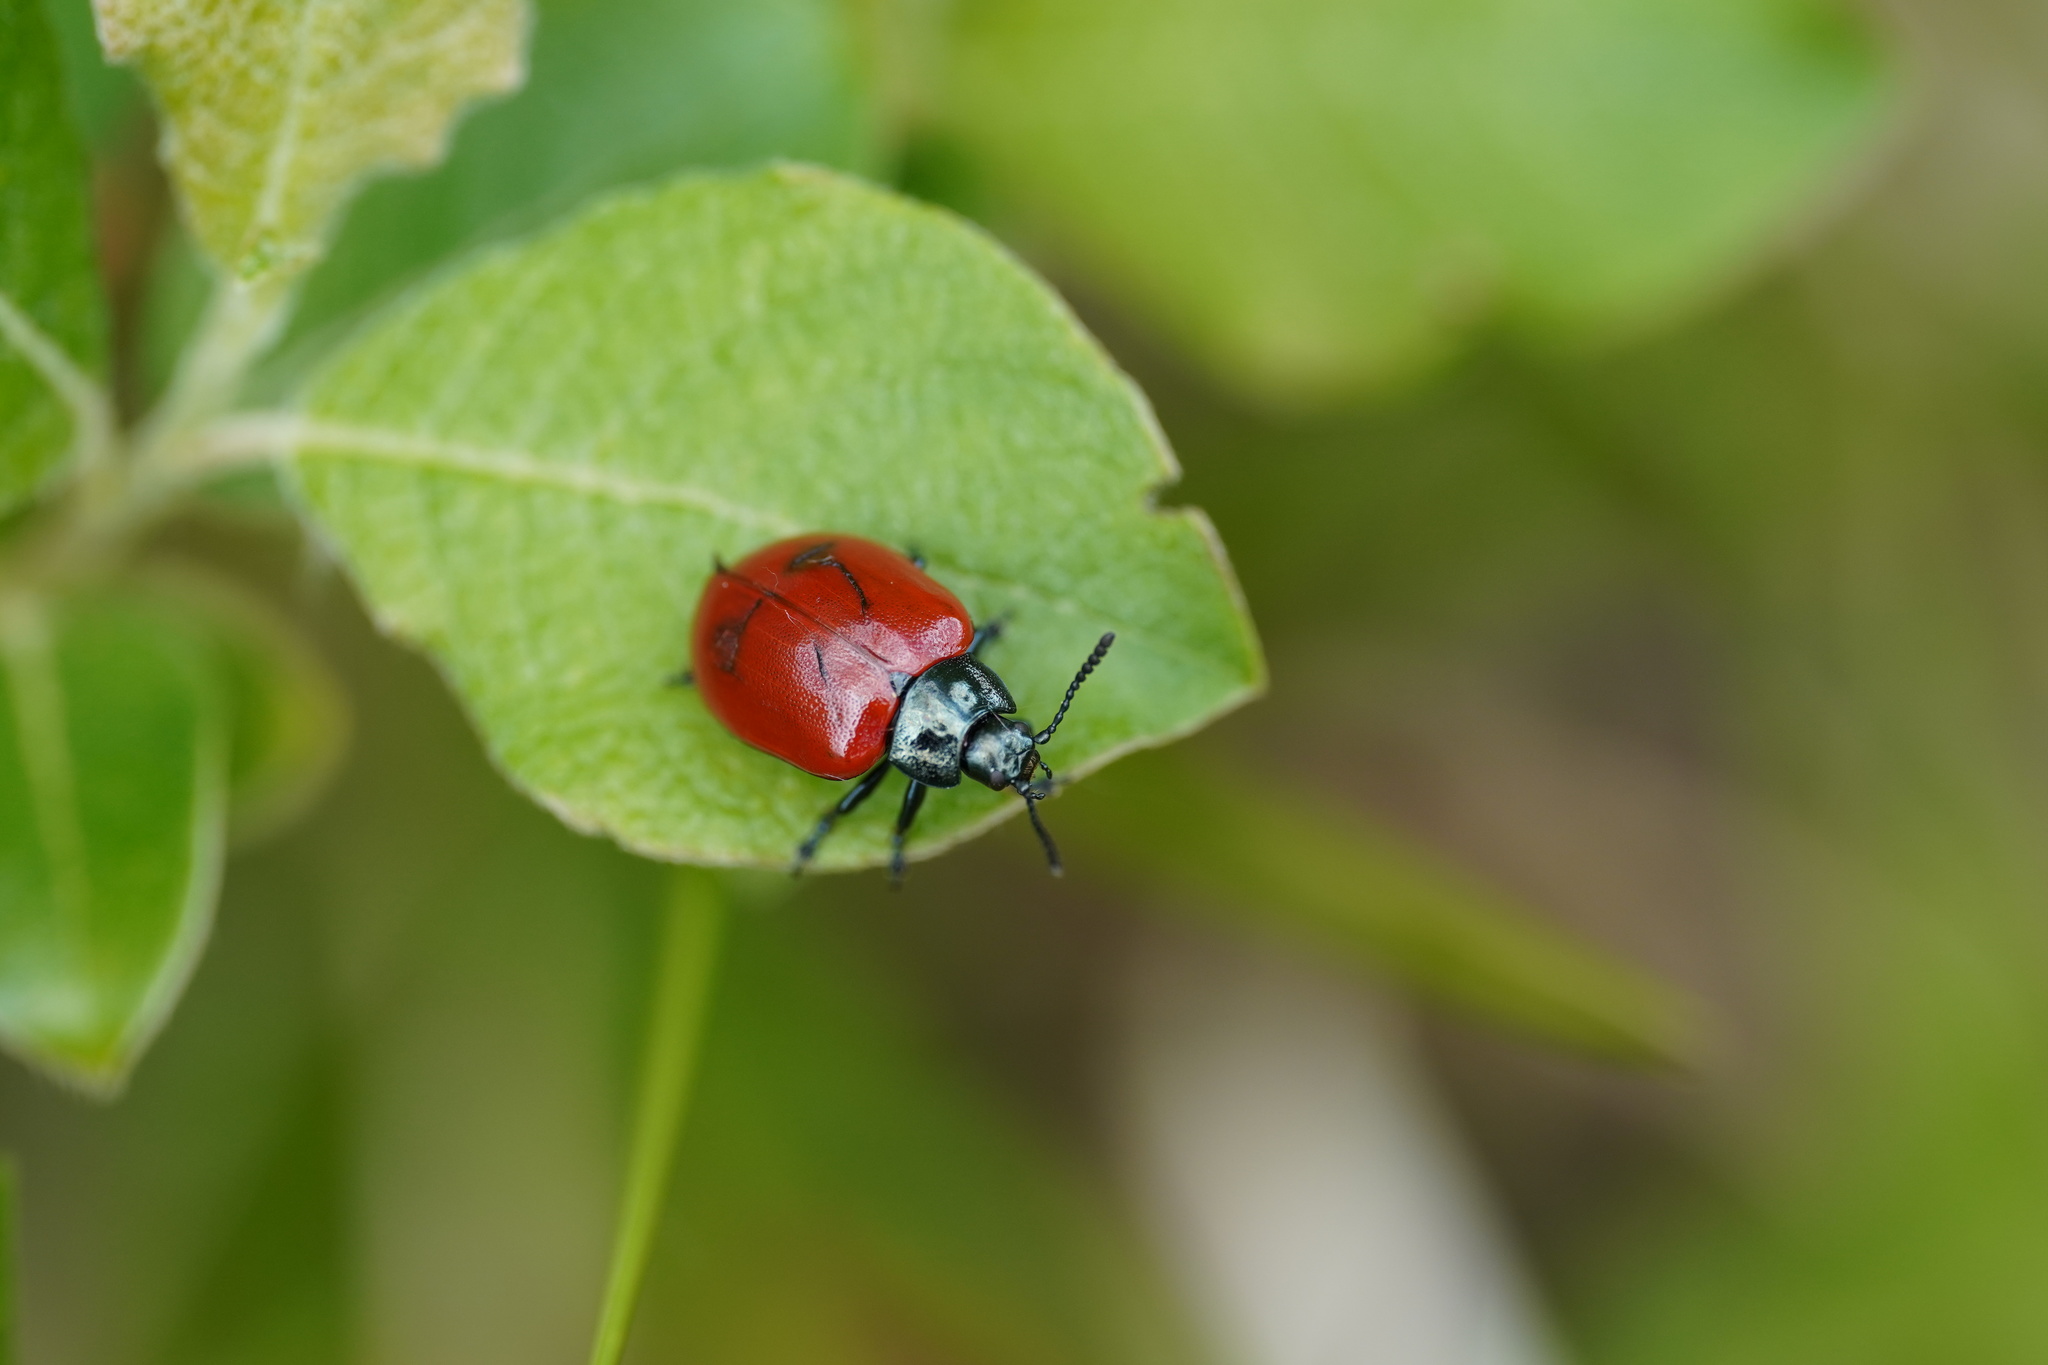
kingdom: Animalia
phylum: Arthropoda
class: Insecta
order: Coleoptera
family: Chrysomelidae
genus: Chrysomela
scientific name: Chrysomela populi
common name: Red poplar leaf beetle
